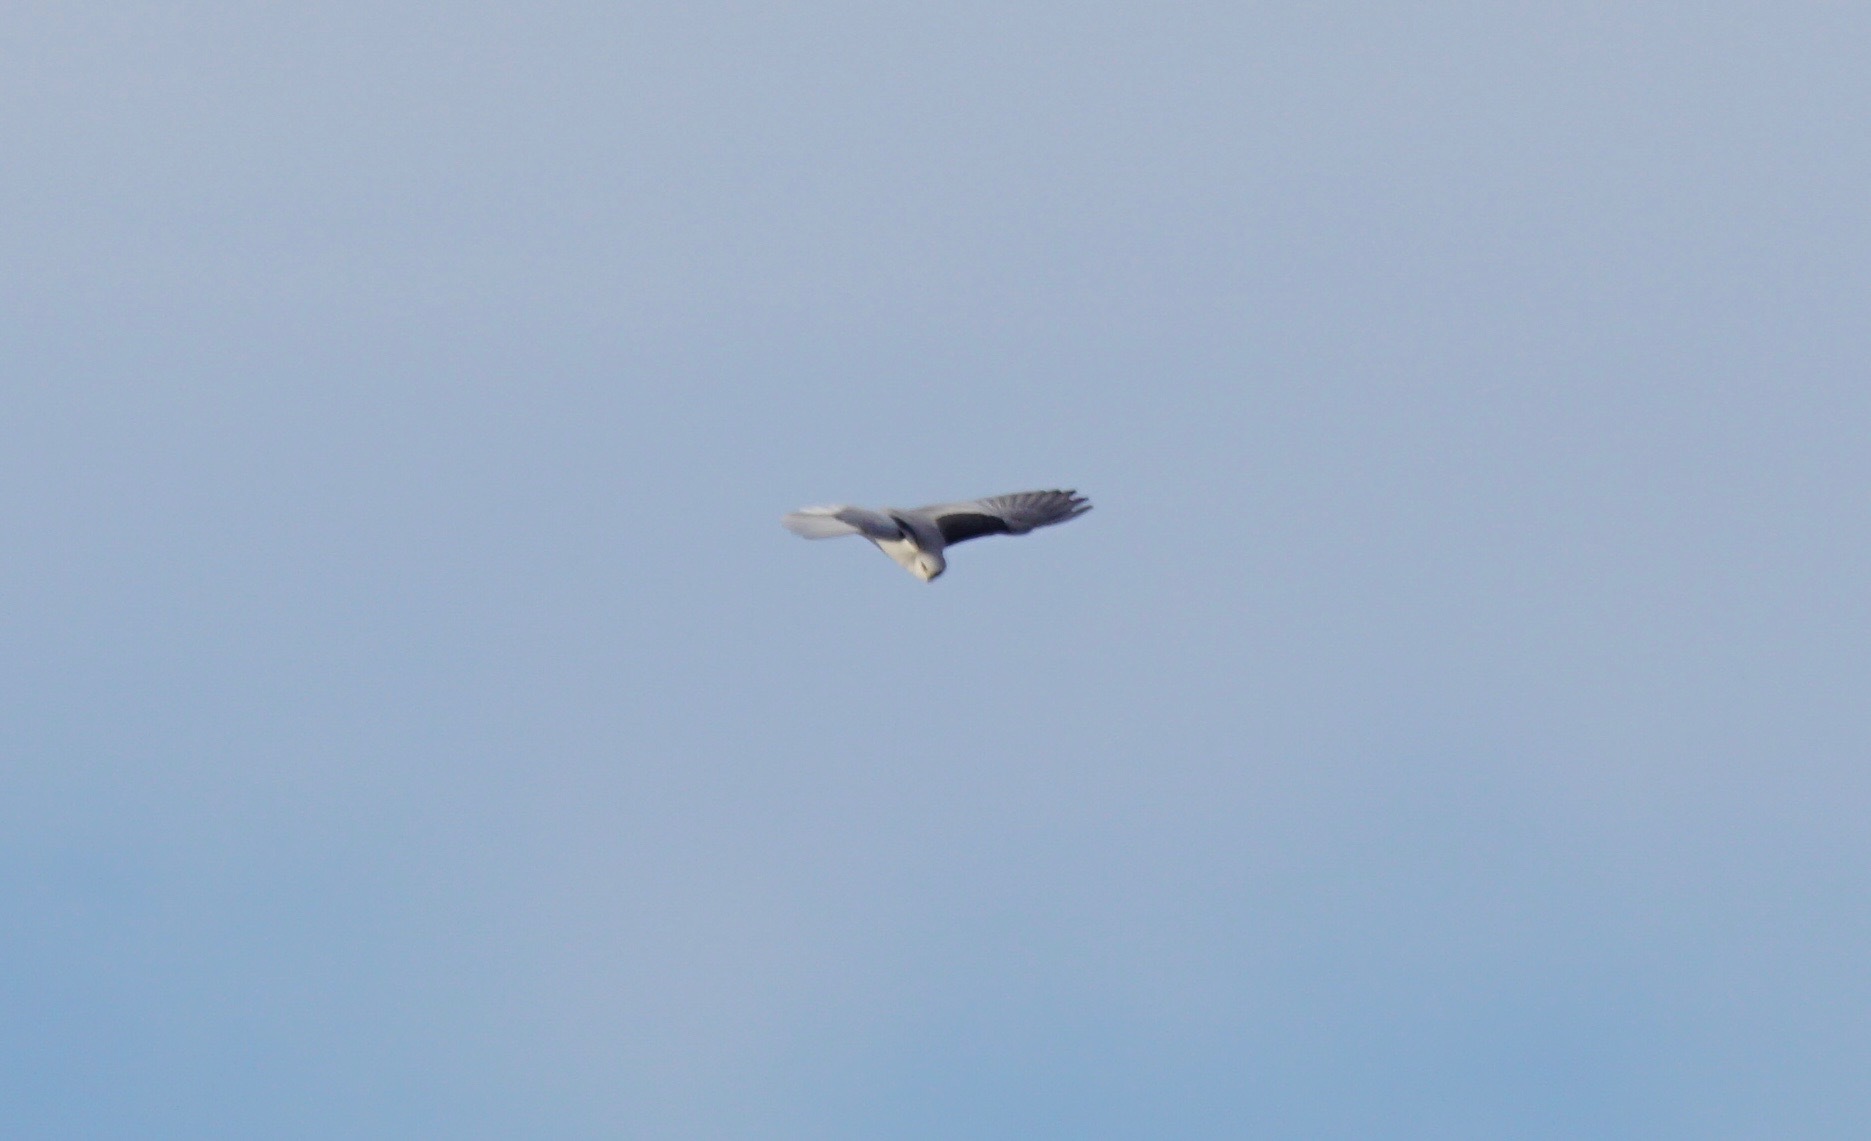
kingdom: Animalia
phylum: Chordata
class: Aves
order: Accipitriformes
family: Accipitridae
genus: Elanus
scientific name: Elanus leucurus
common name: White-tailed kite
